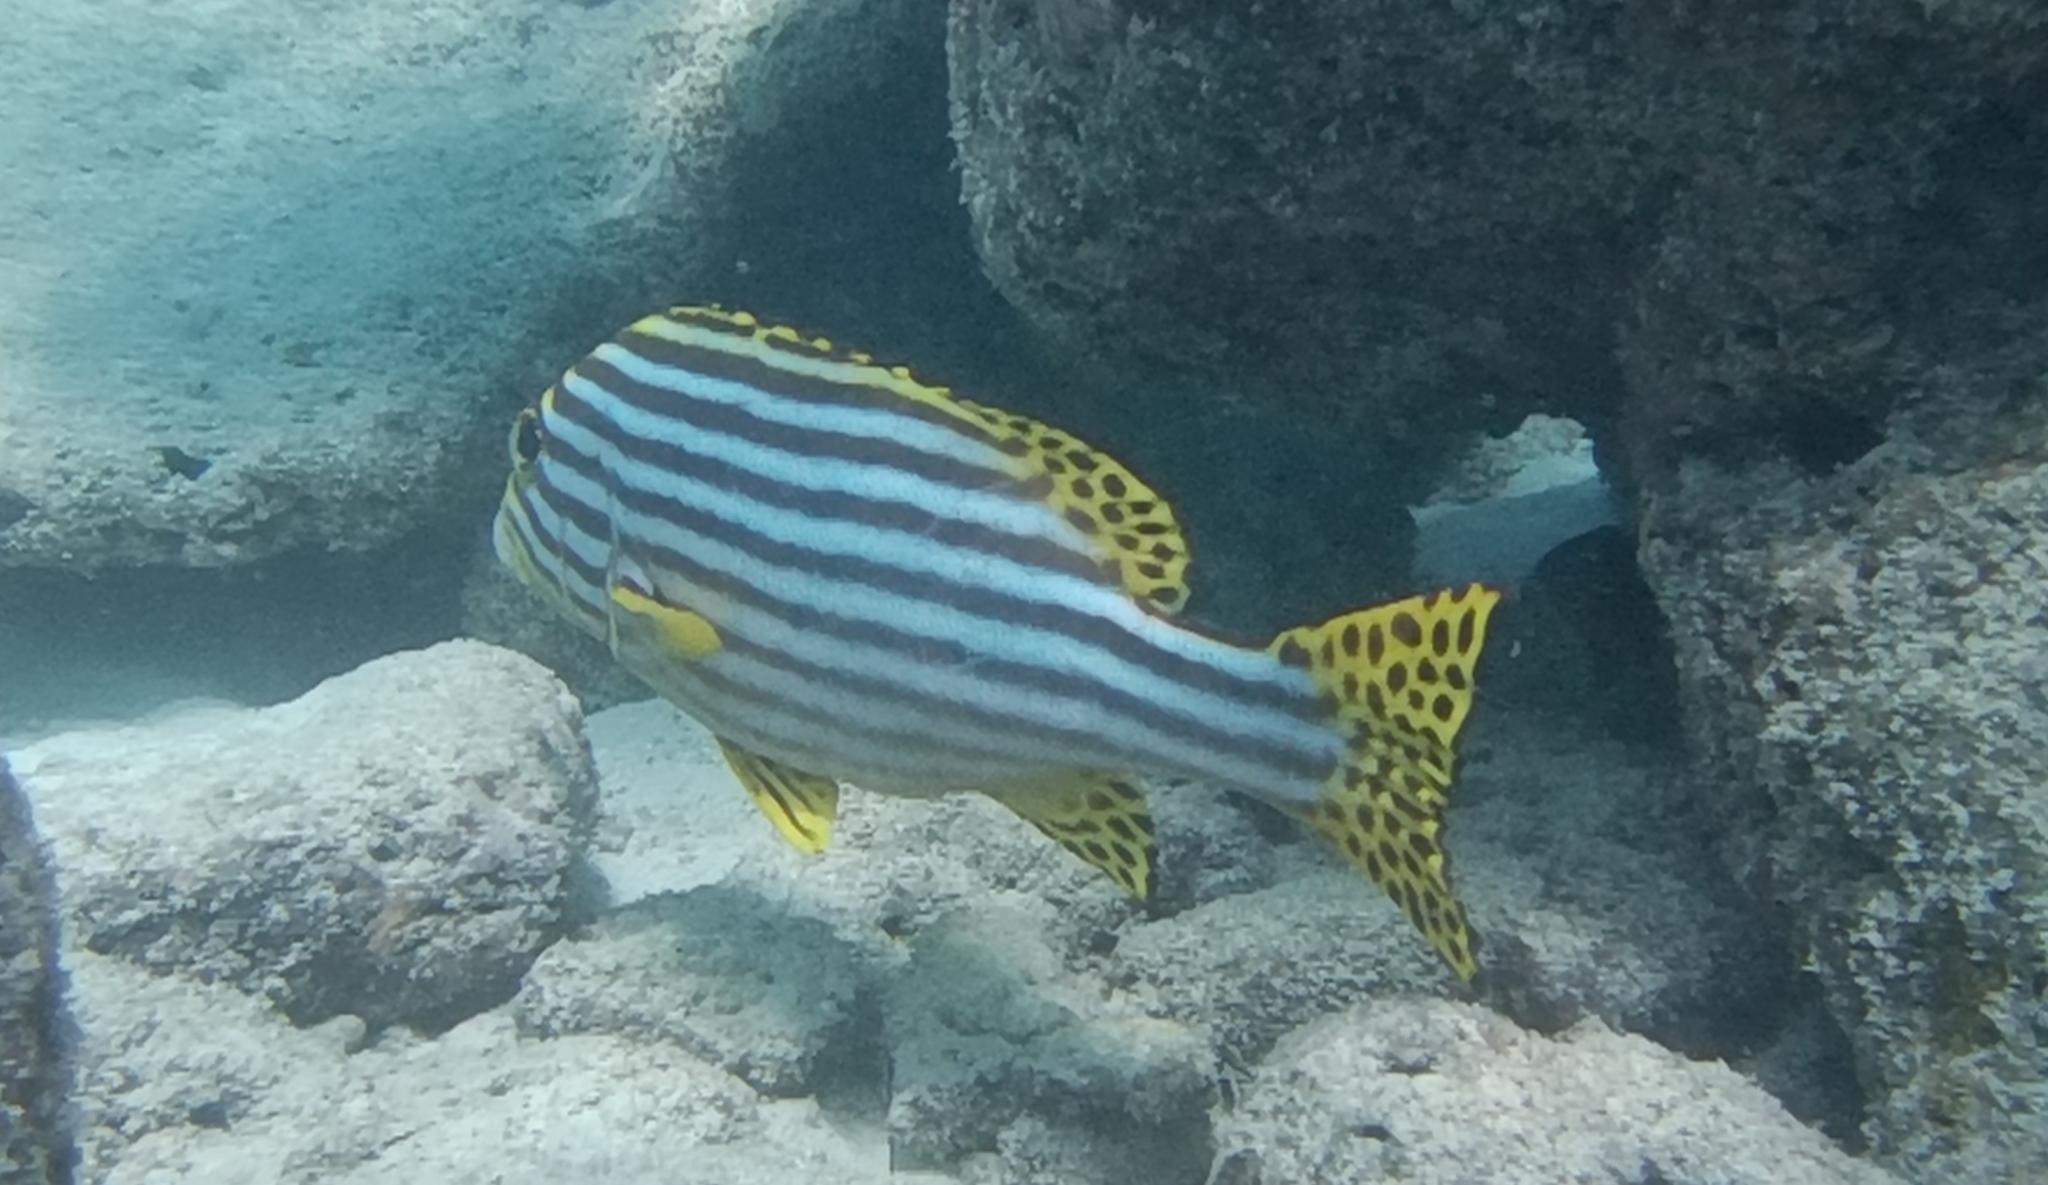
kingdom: Animalia
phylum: Chordata
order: Perciformes
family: Haemulidae
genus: Plectorhinchus
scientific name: Plectorhinchus vittatus
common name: Oriental sweetlips
